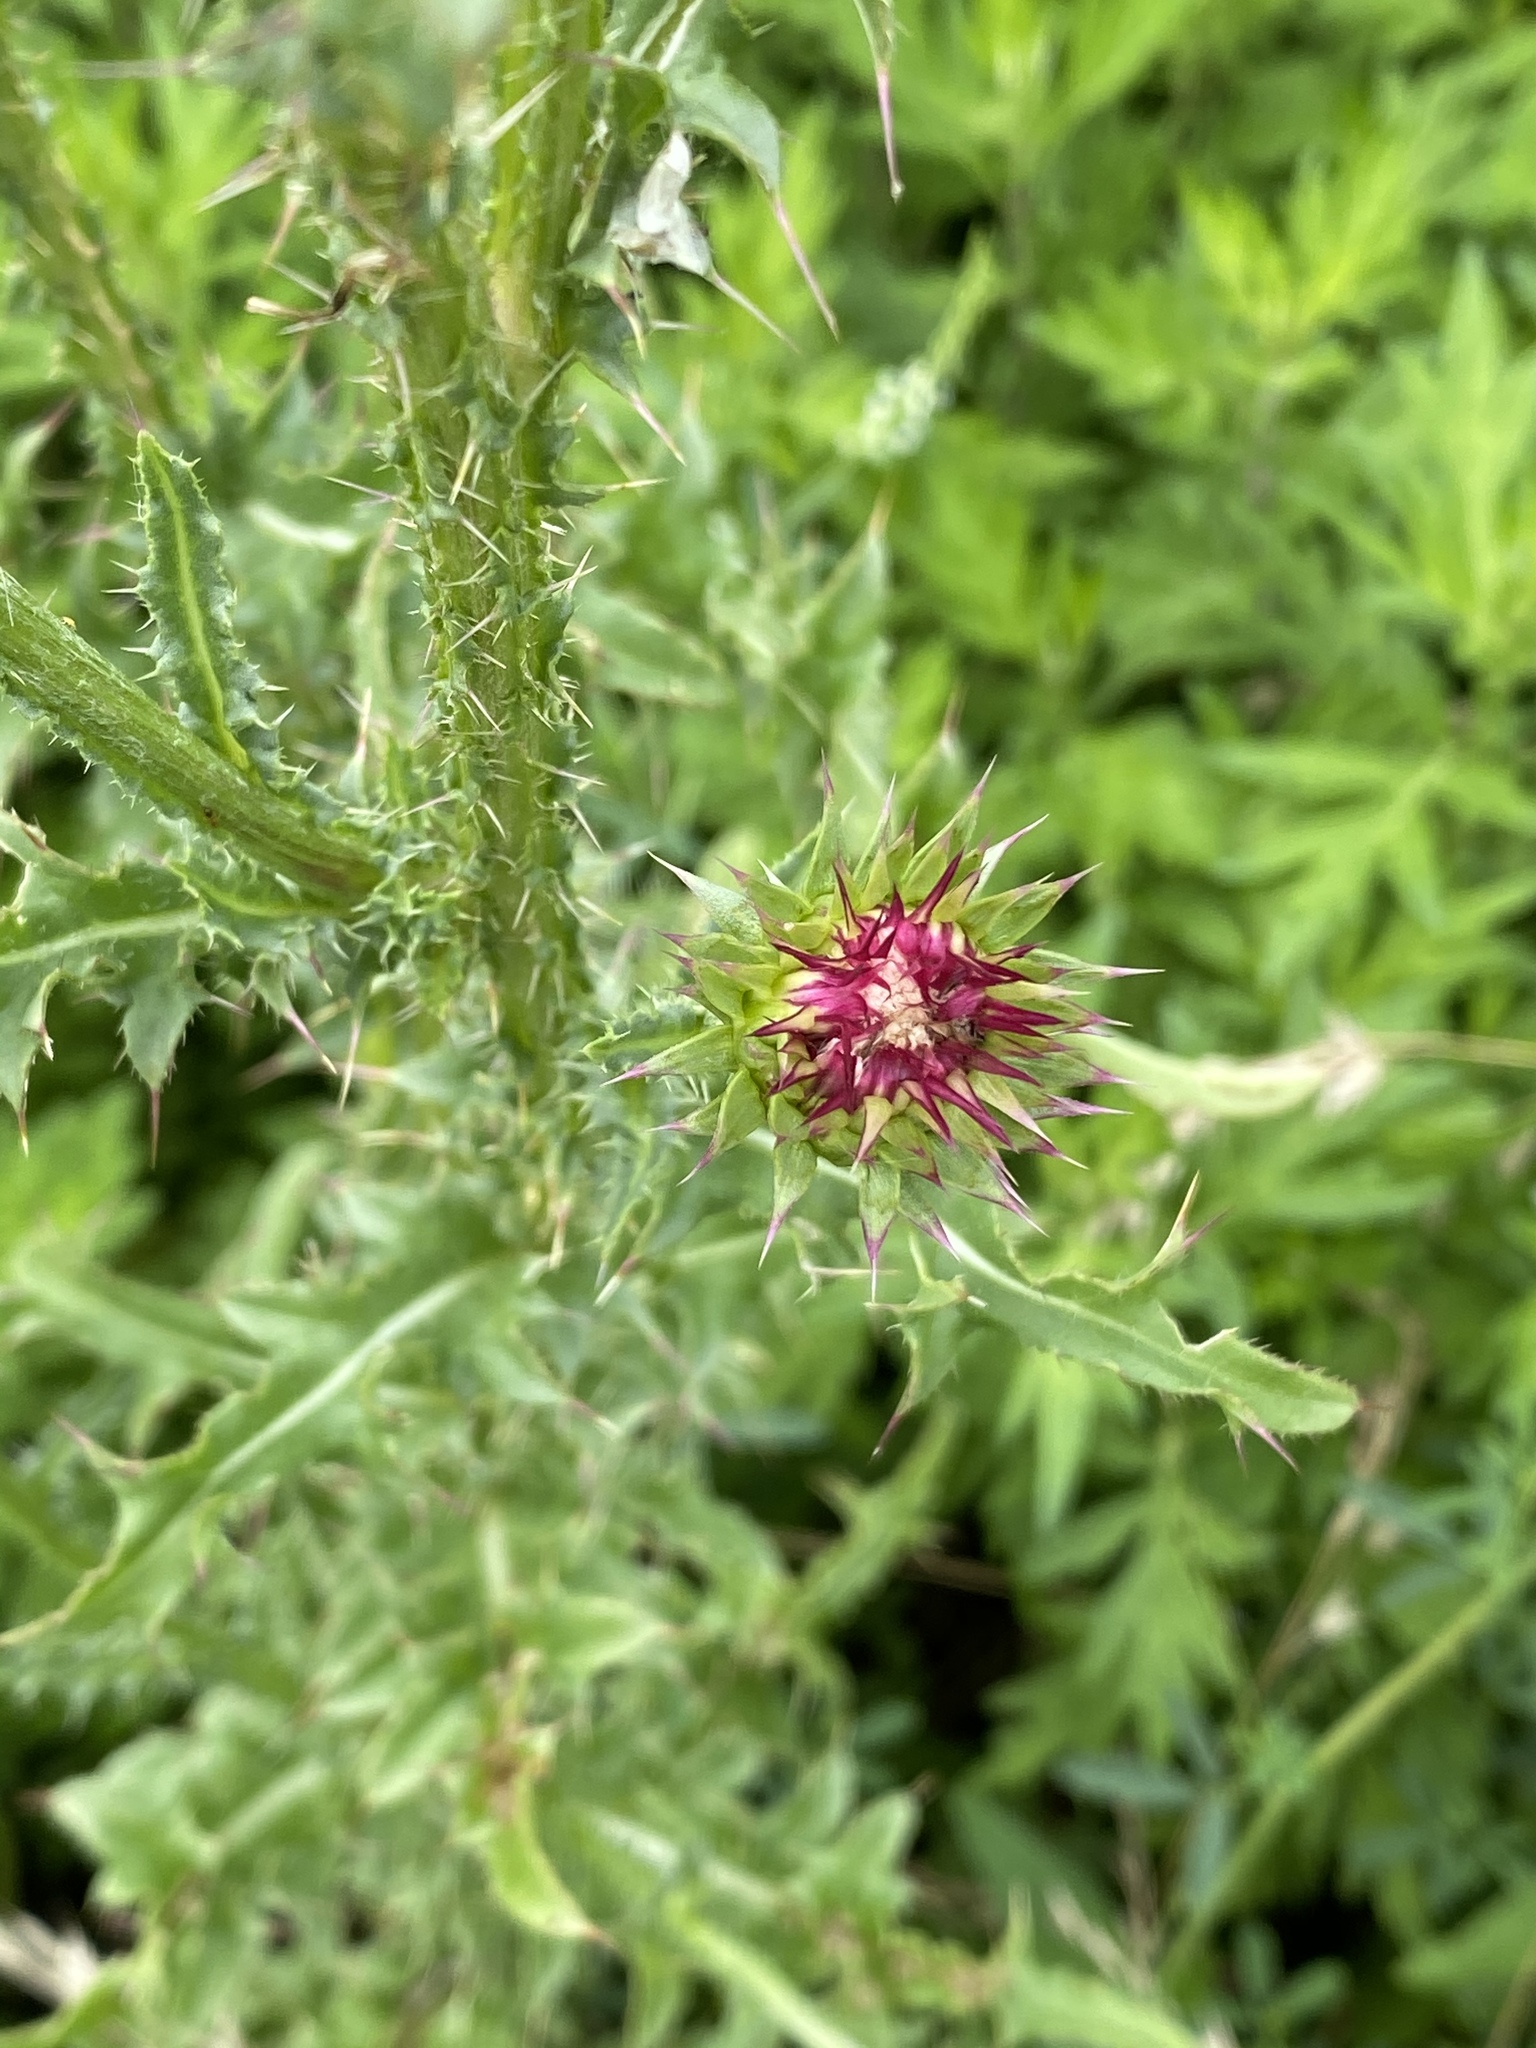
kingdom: Plantae
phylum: Tracheophyta
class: Magnoliopsida
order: Asterales
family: Asteraceae
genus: Carduus
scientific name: Carduus nutans
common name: Musk thistle
